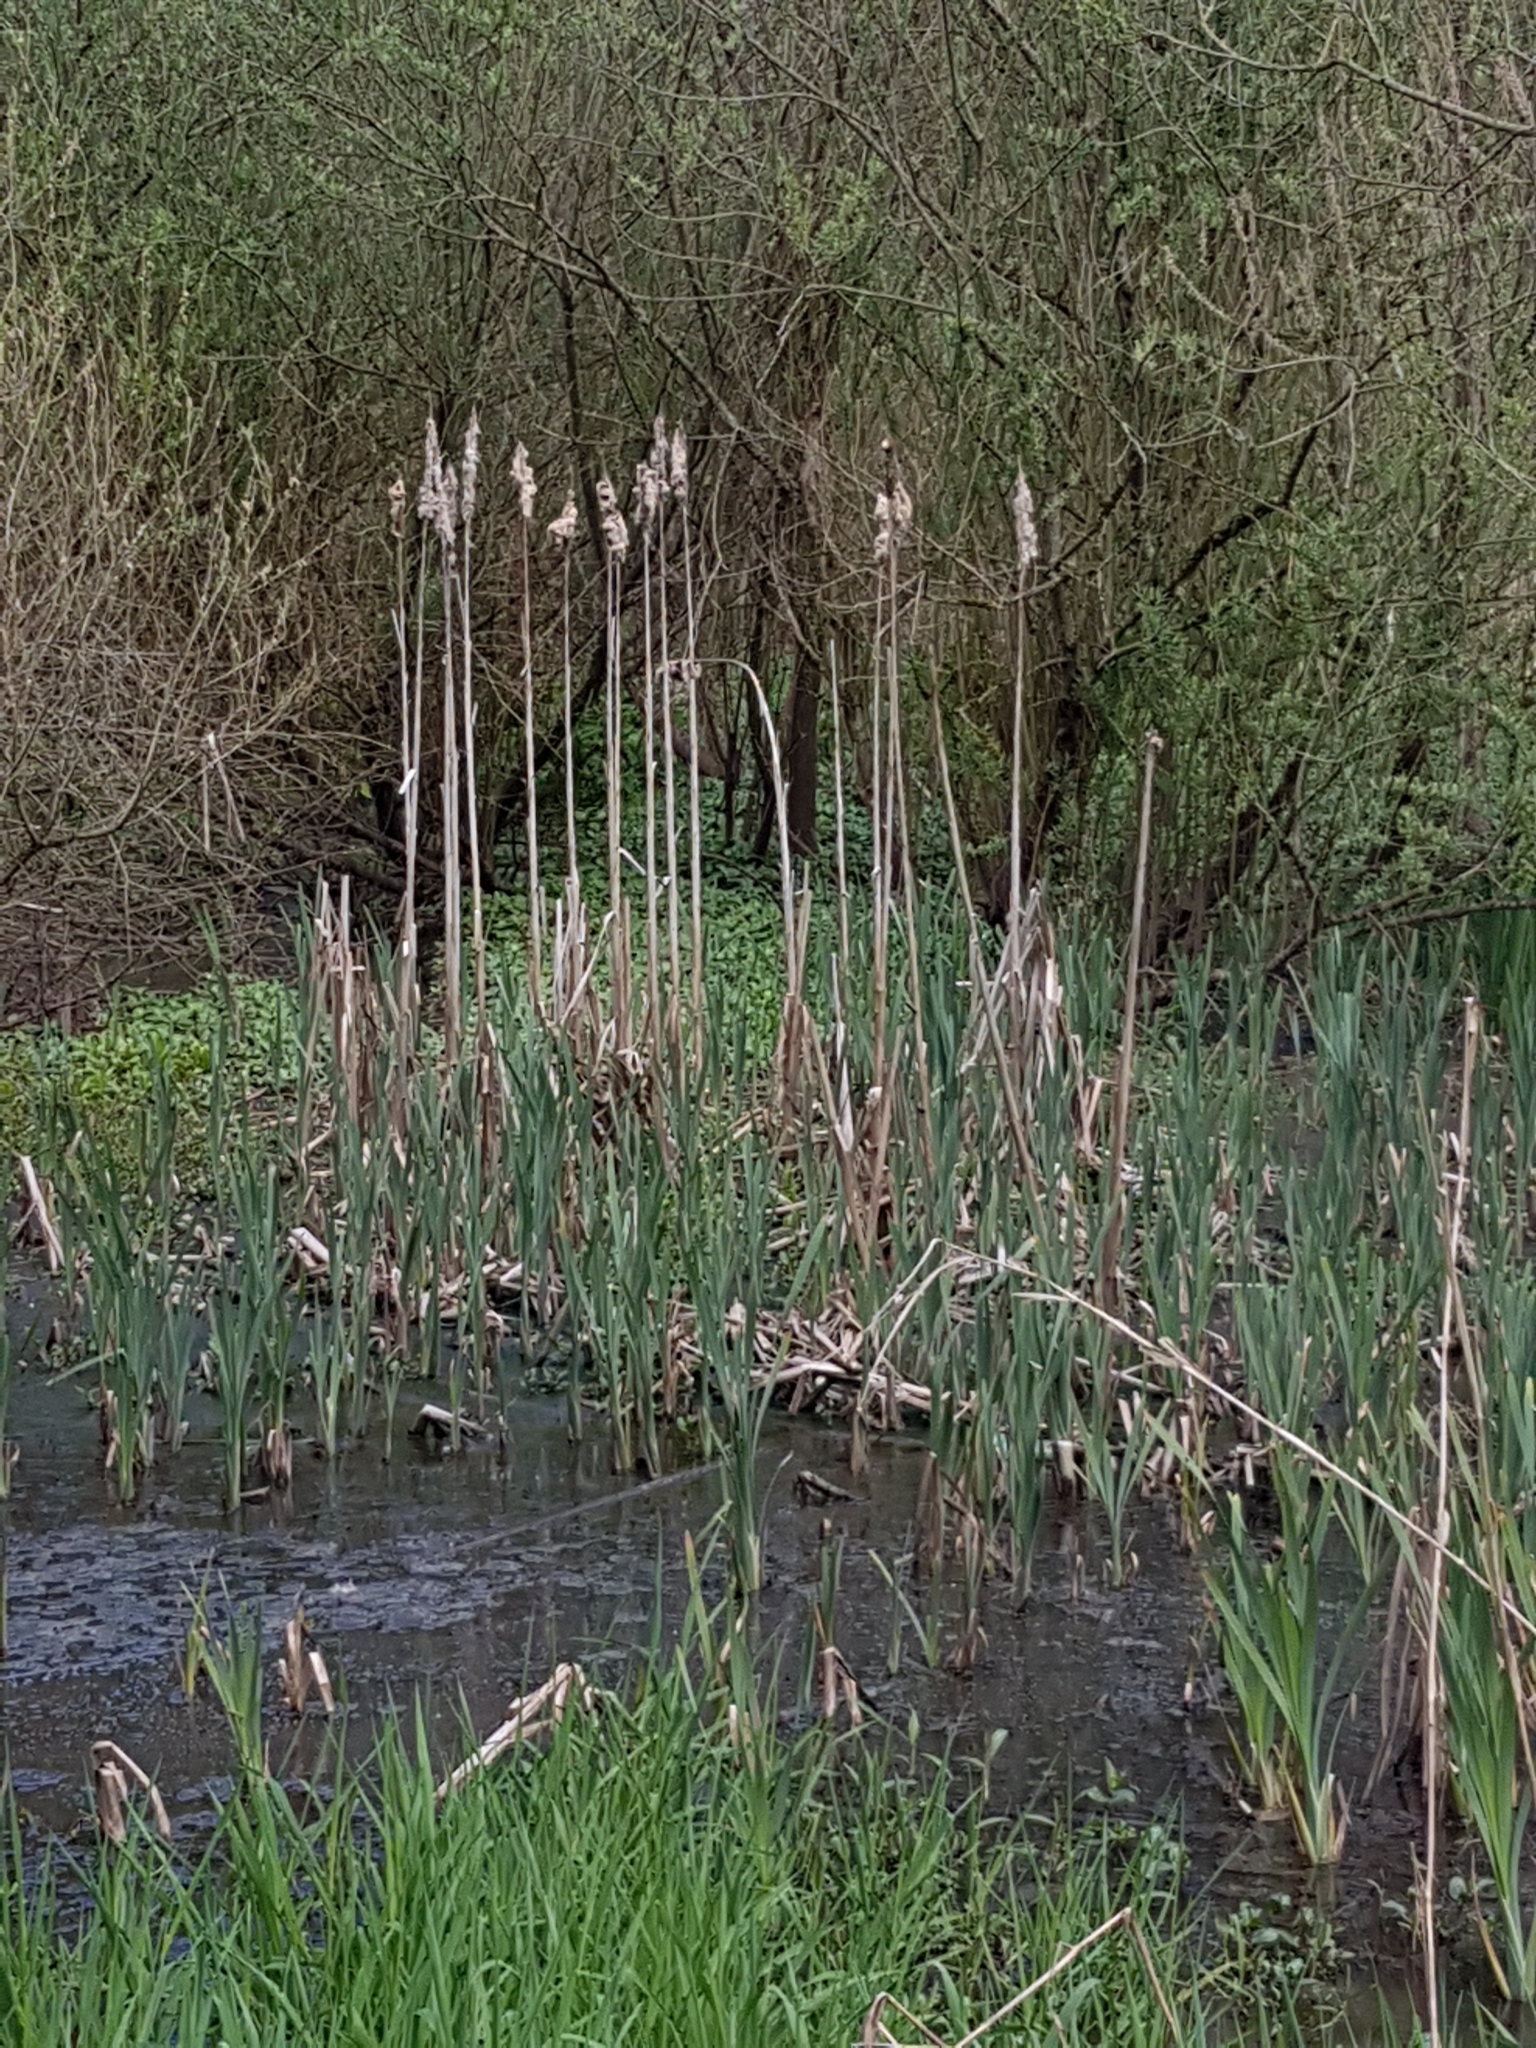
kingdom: Plantae
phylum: Tracheophyta
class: Liliopsida
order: Poales
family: Typhaceae
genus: Typha
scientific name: Typha latifolia
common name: Broadleaf cattail
